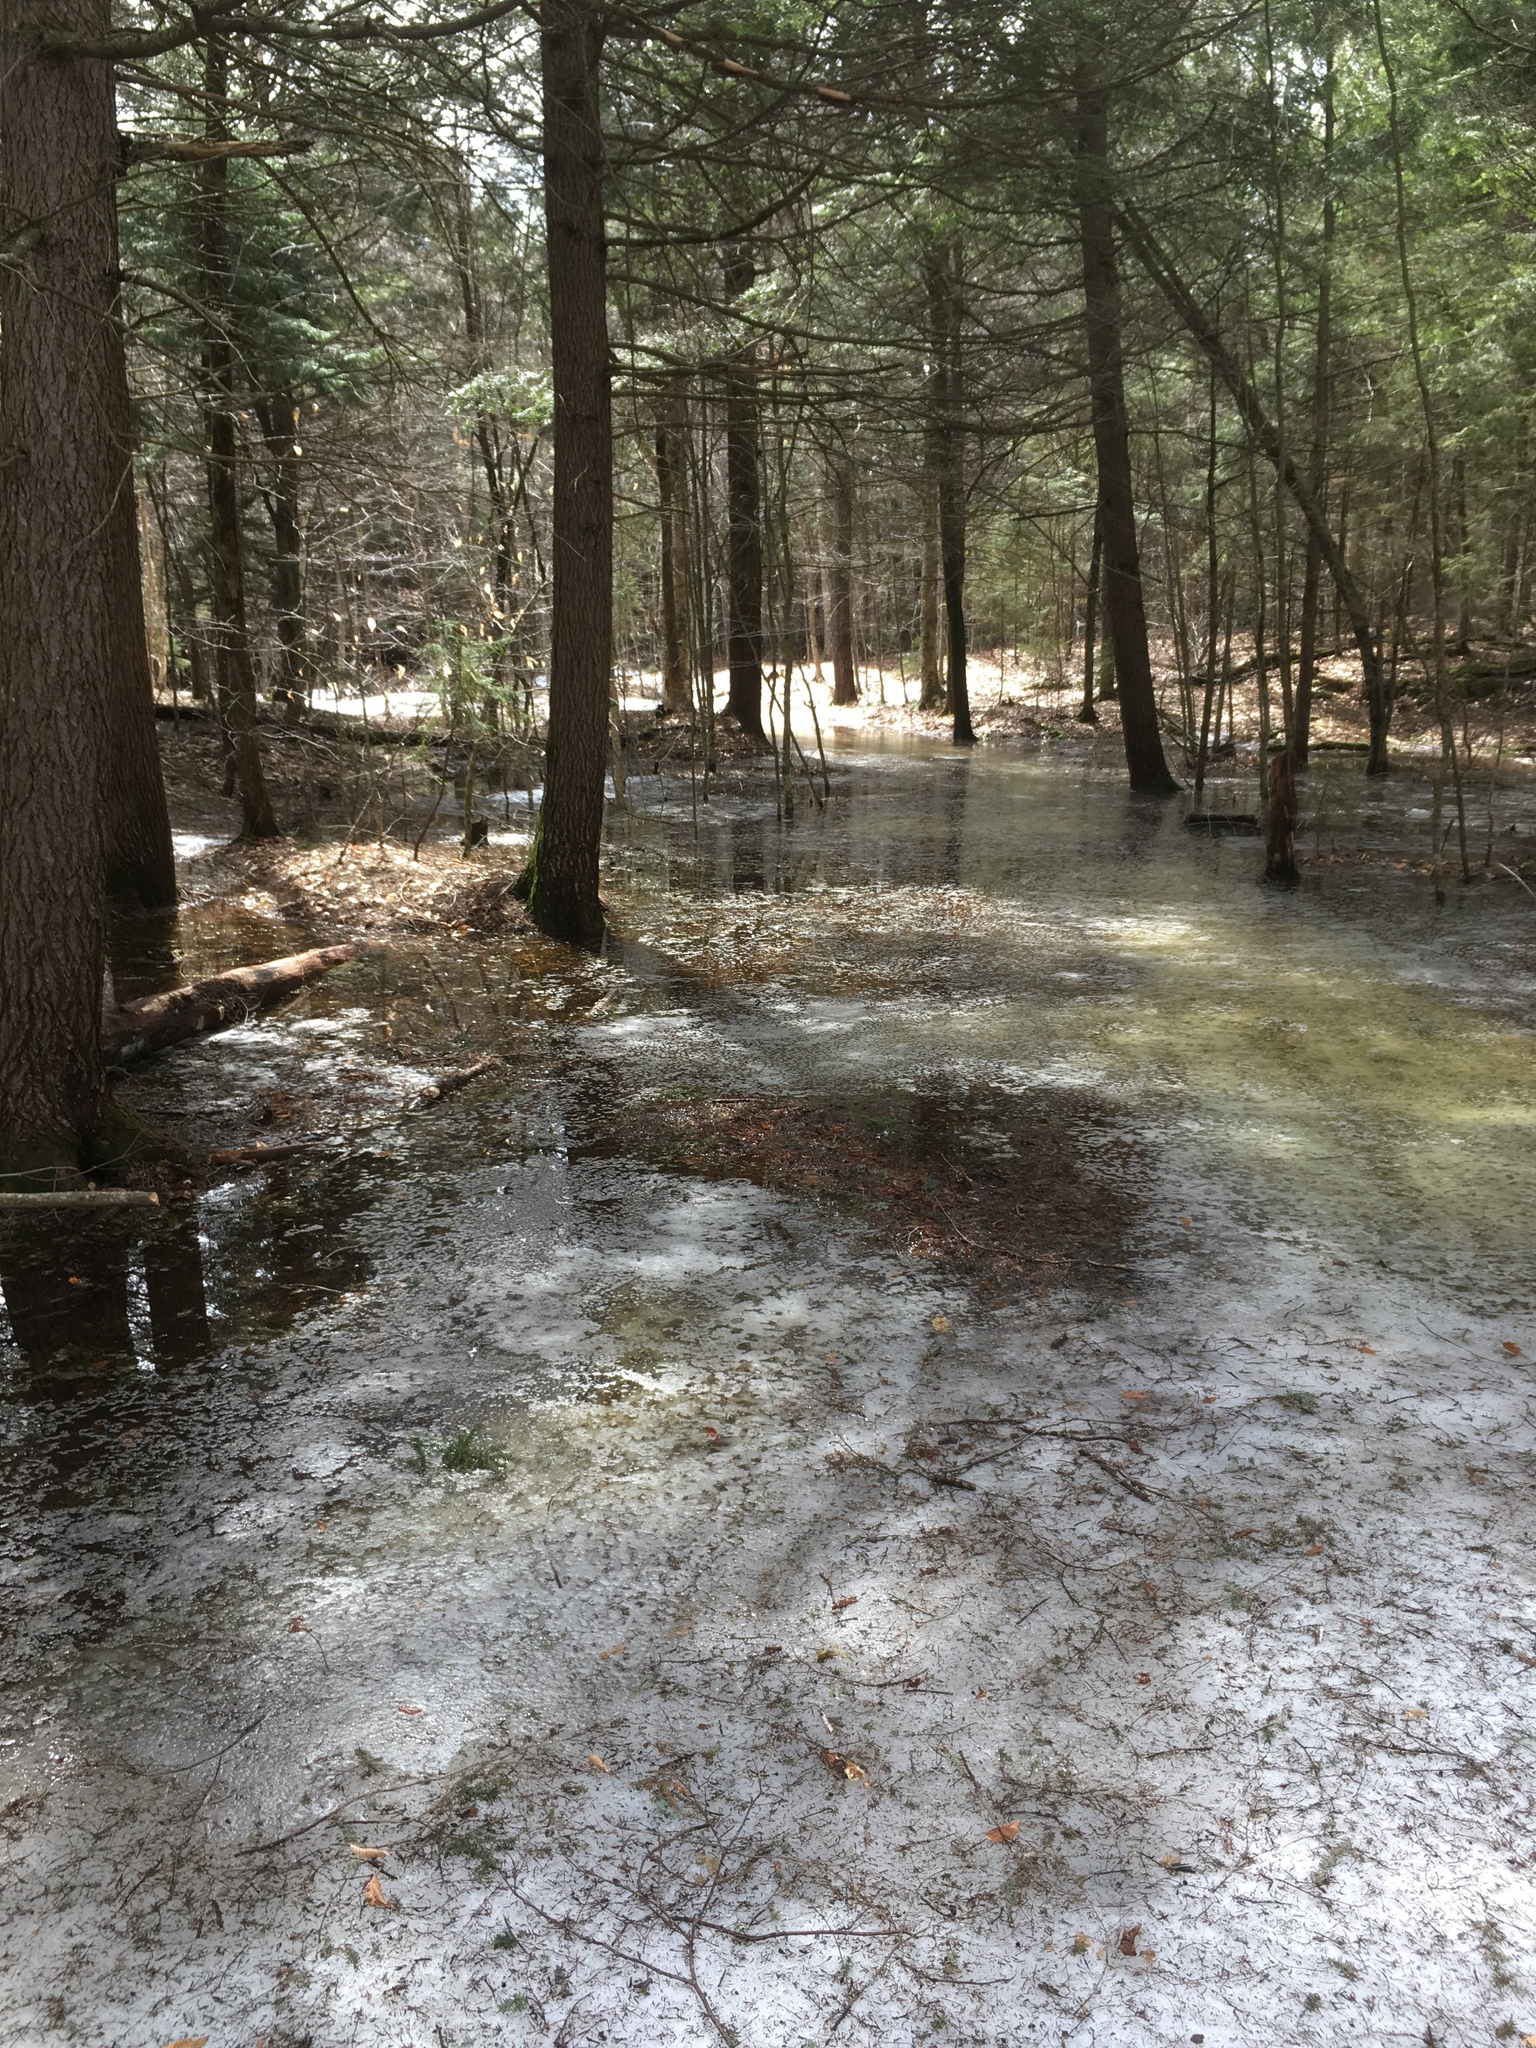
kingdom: Plantae
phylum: Tracheophyta
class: Pinopsida
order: Pinales
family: Pinaceae
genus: Tsuga
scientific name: Tsuga canadensis
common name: Eastern hemlock
